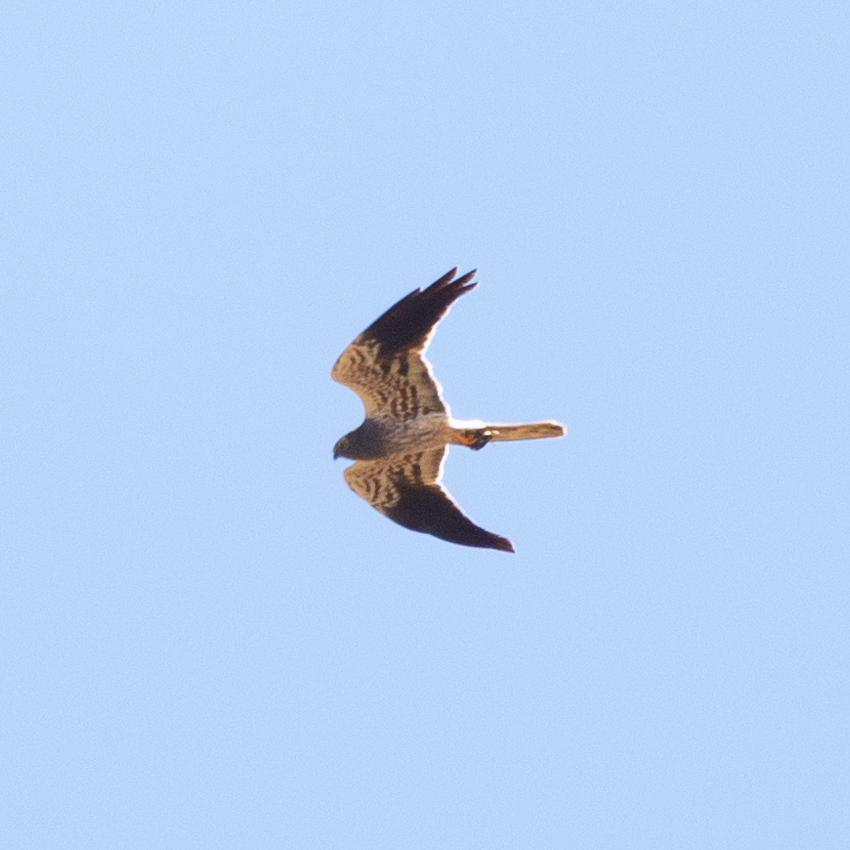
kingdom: Animalia
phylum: Chordata
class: Aves
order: Accipitriformes
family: Accipitridae
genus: Circus
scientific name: Circus pygargus
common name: Montagu's harrier
